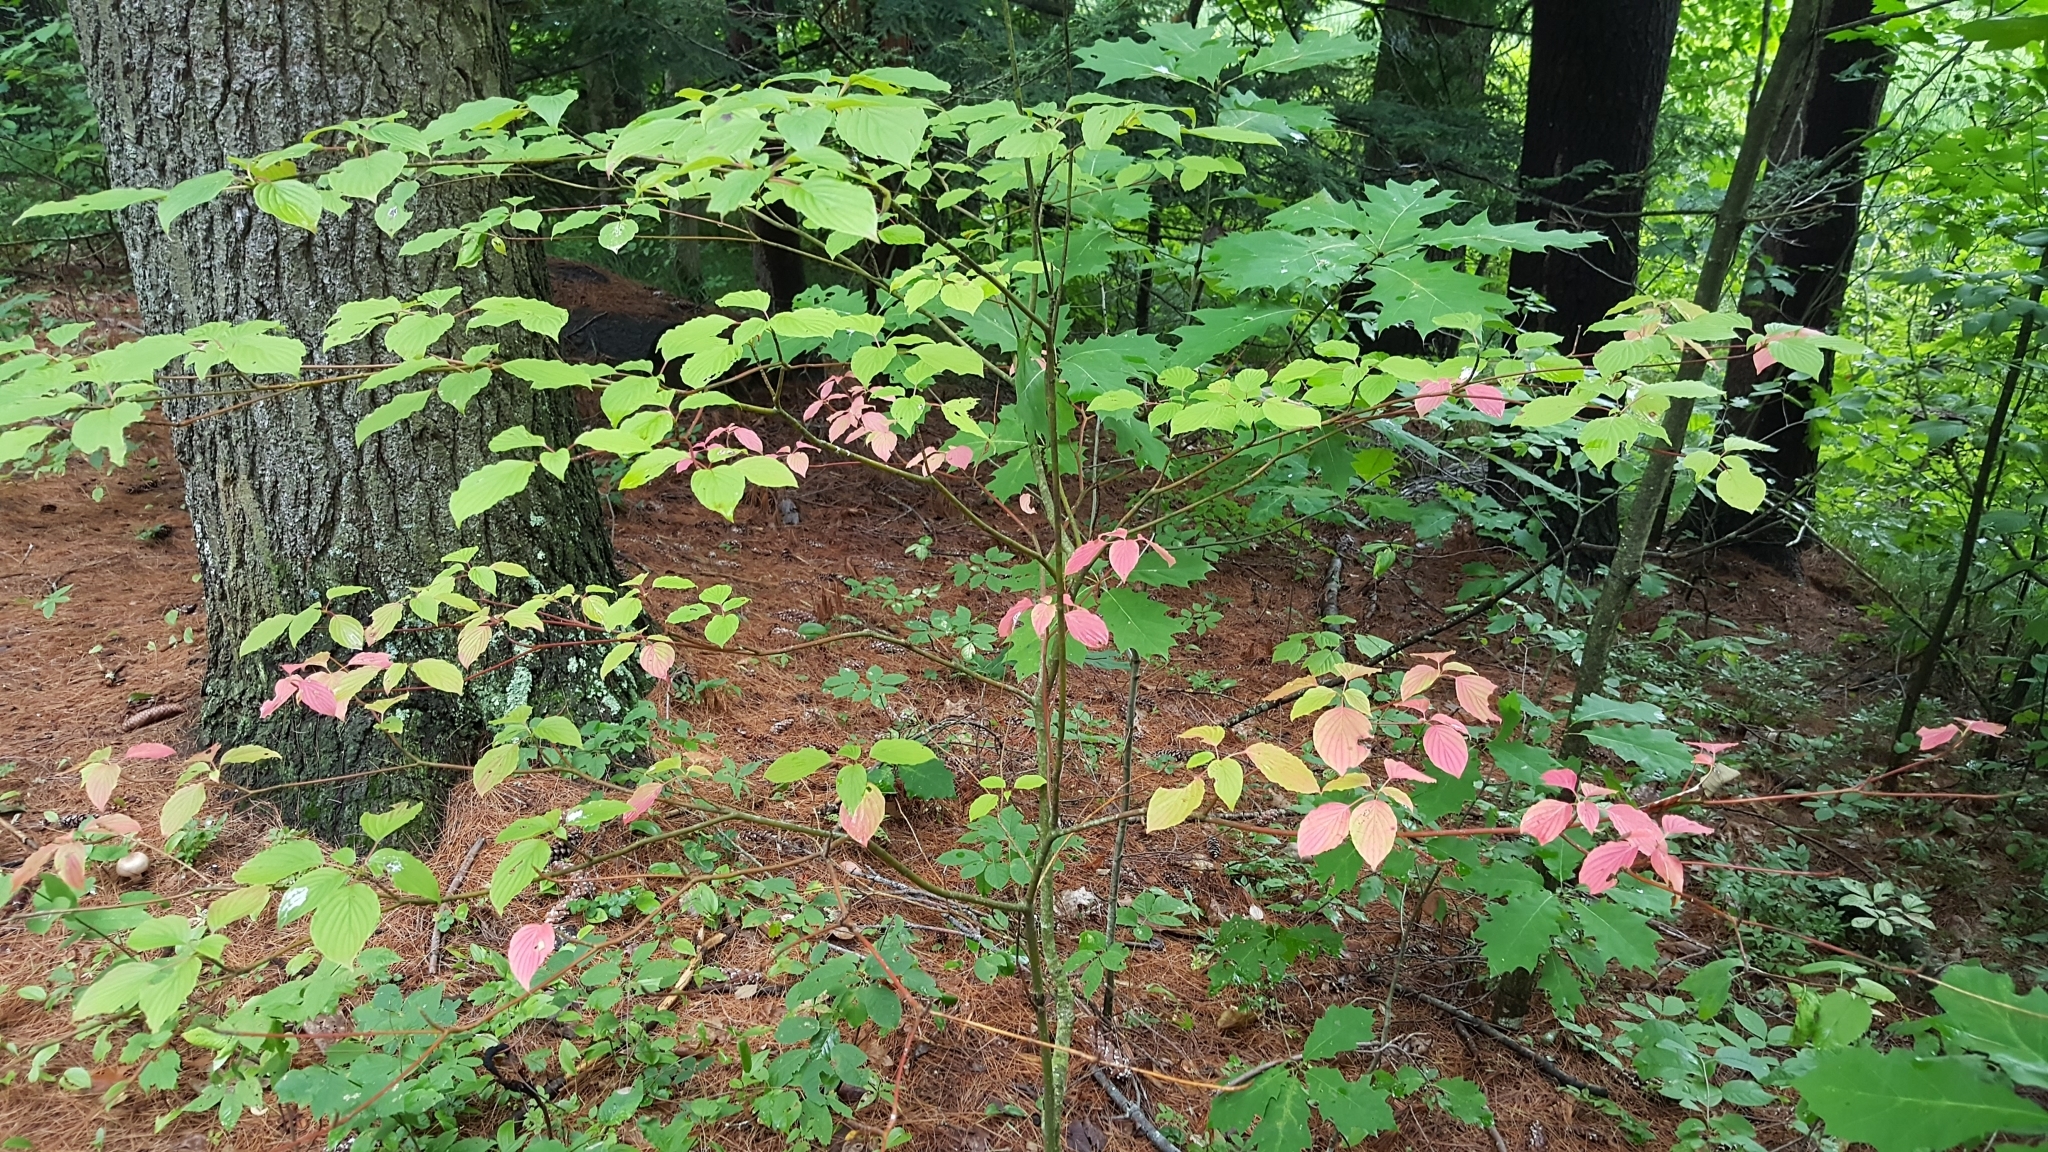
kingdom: Plantae
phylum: Tracheophyta
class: Magnoliopsida
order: Cornales
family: Cornaceae
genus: Cornus
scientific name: Cornus alternifolia
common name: Pagoda dogwood
